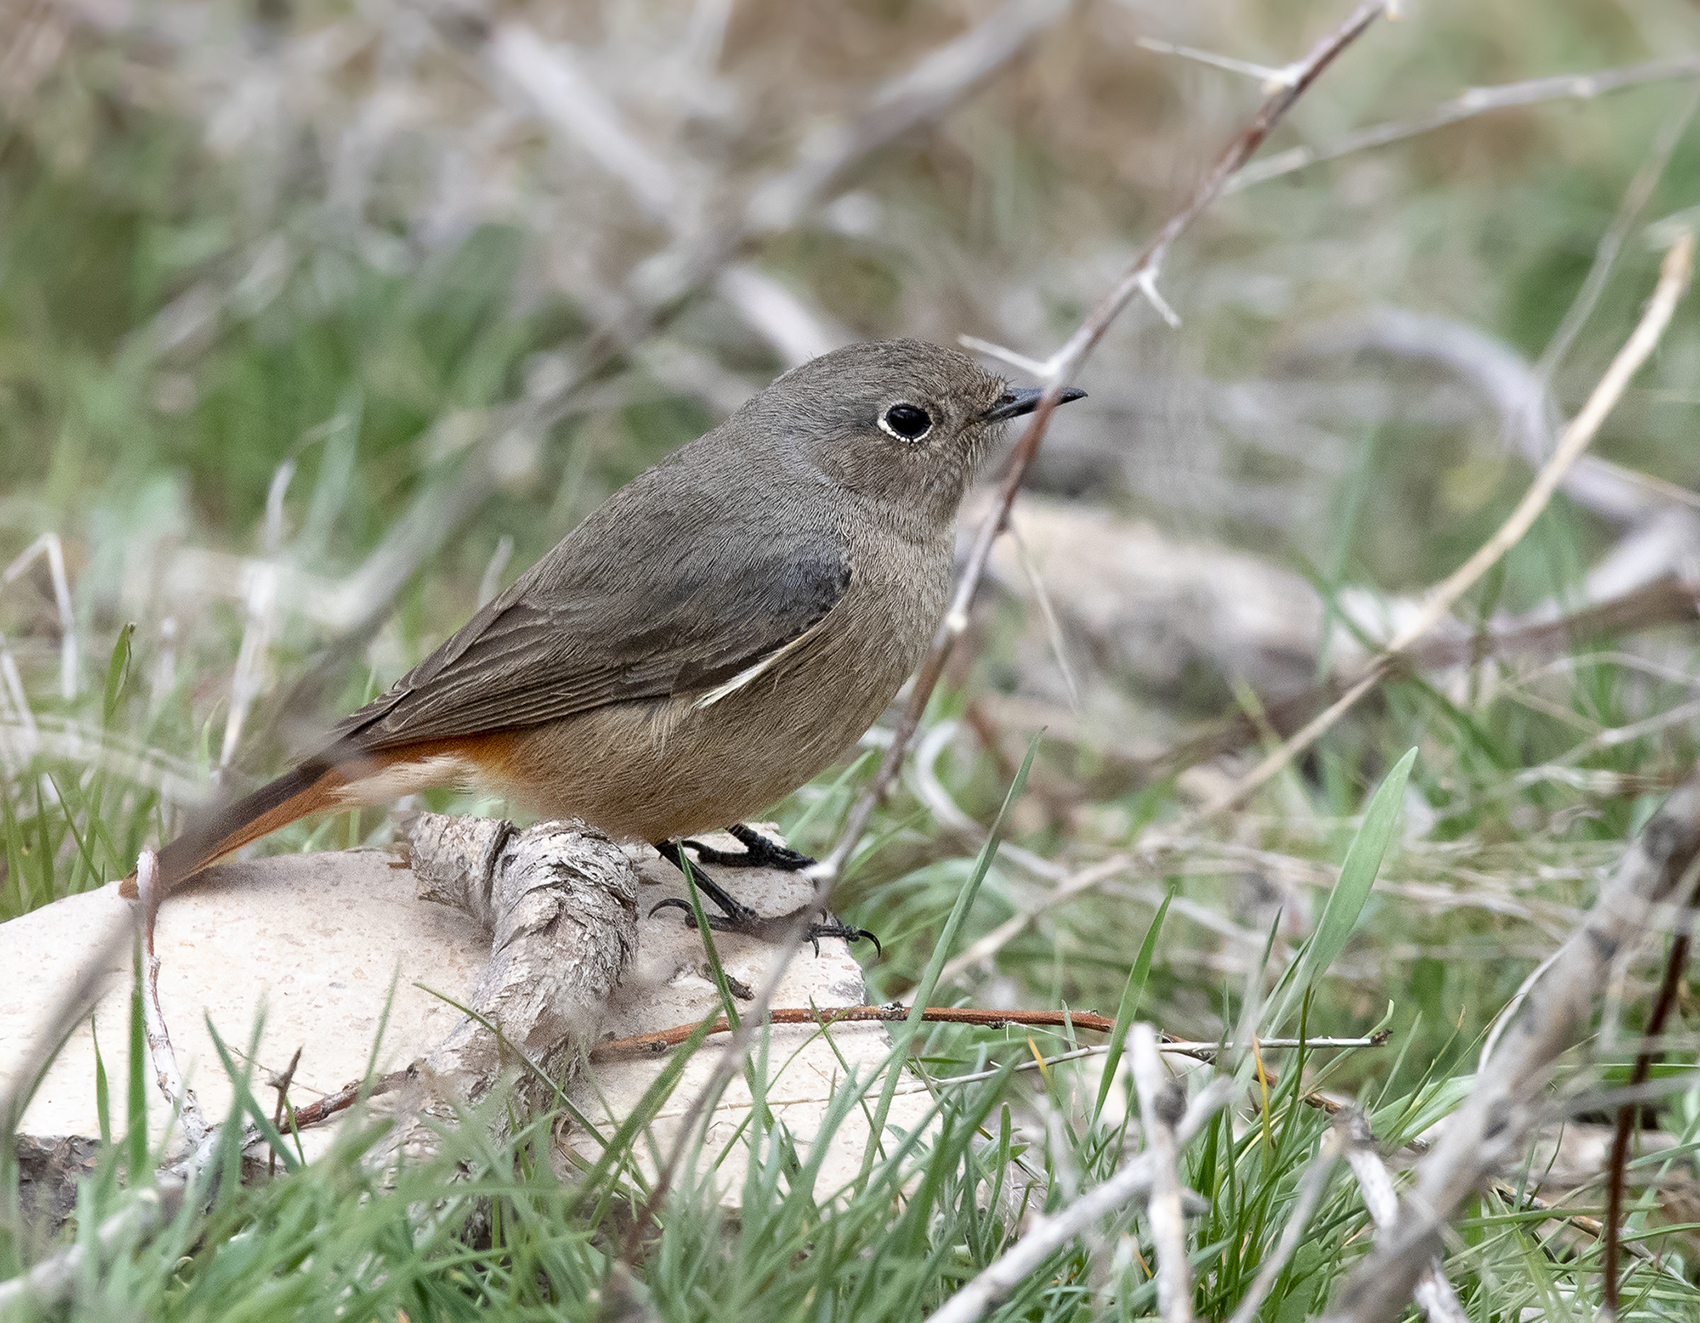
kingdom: Animalia
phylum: Chordata
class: Aves
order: Passeriformes
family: Muscicapidae
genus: Phoenicurus
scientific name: Phoenicurus ochruros
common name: Black redstart
